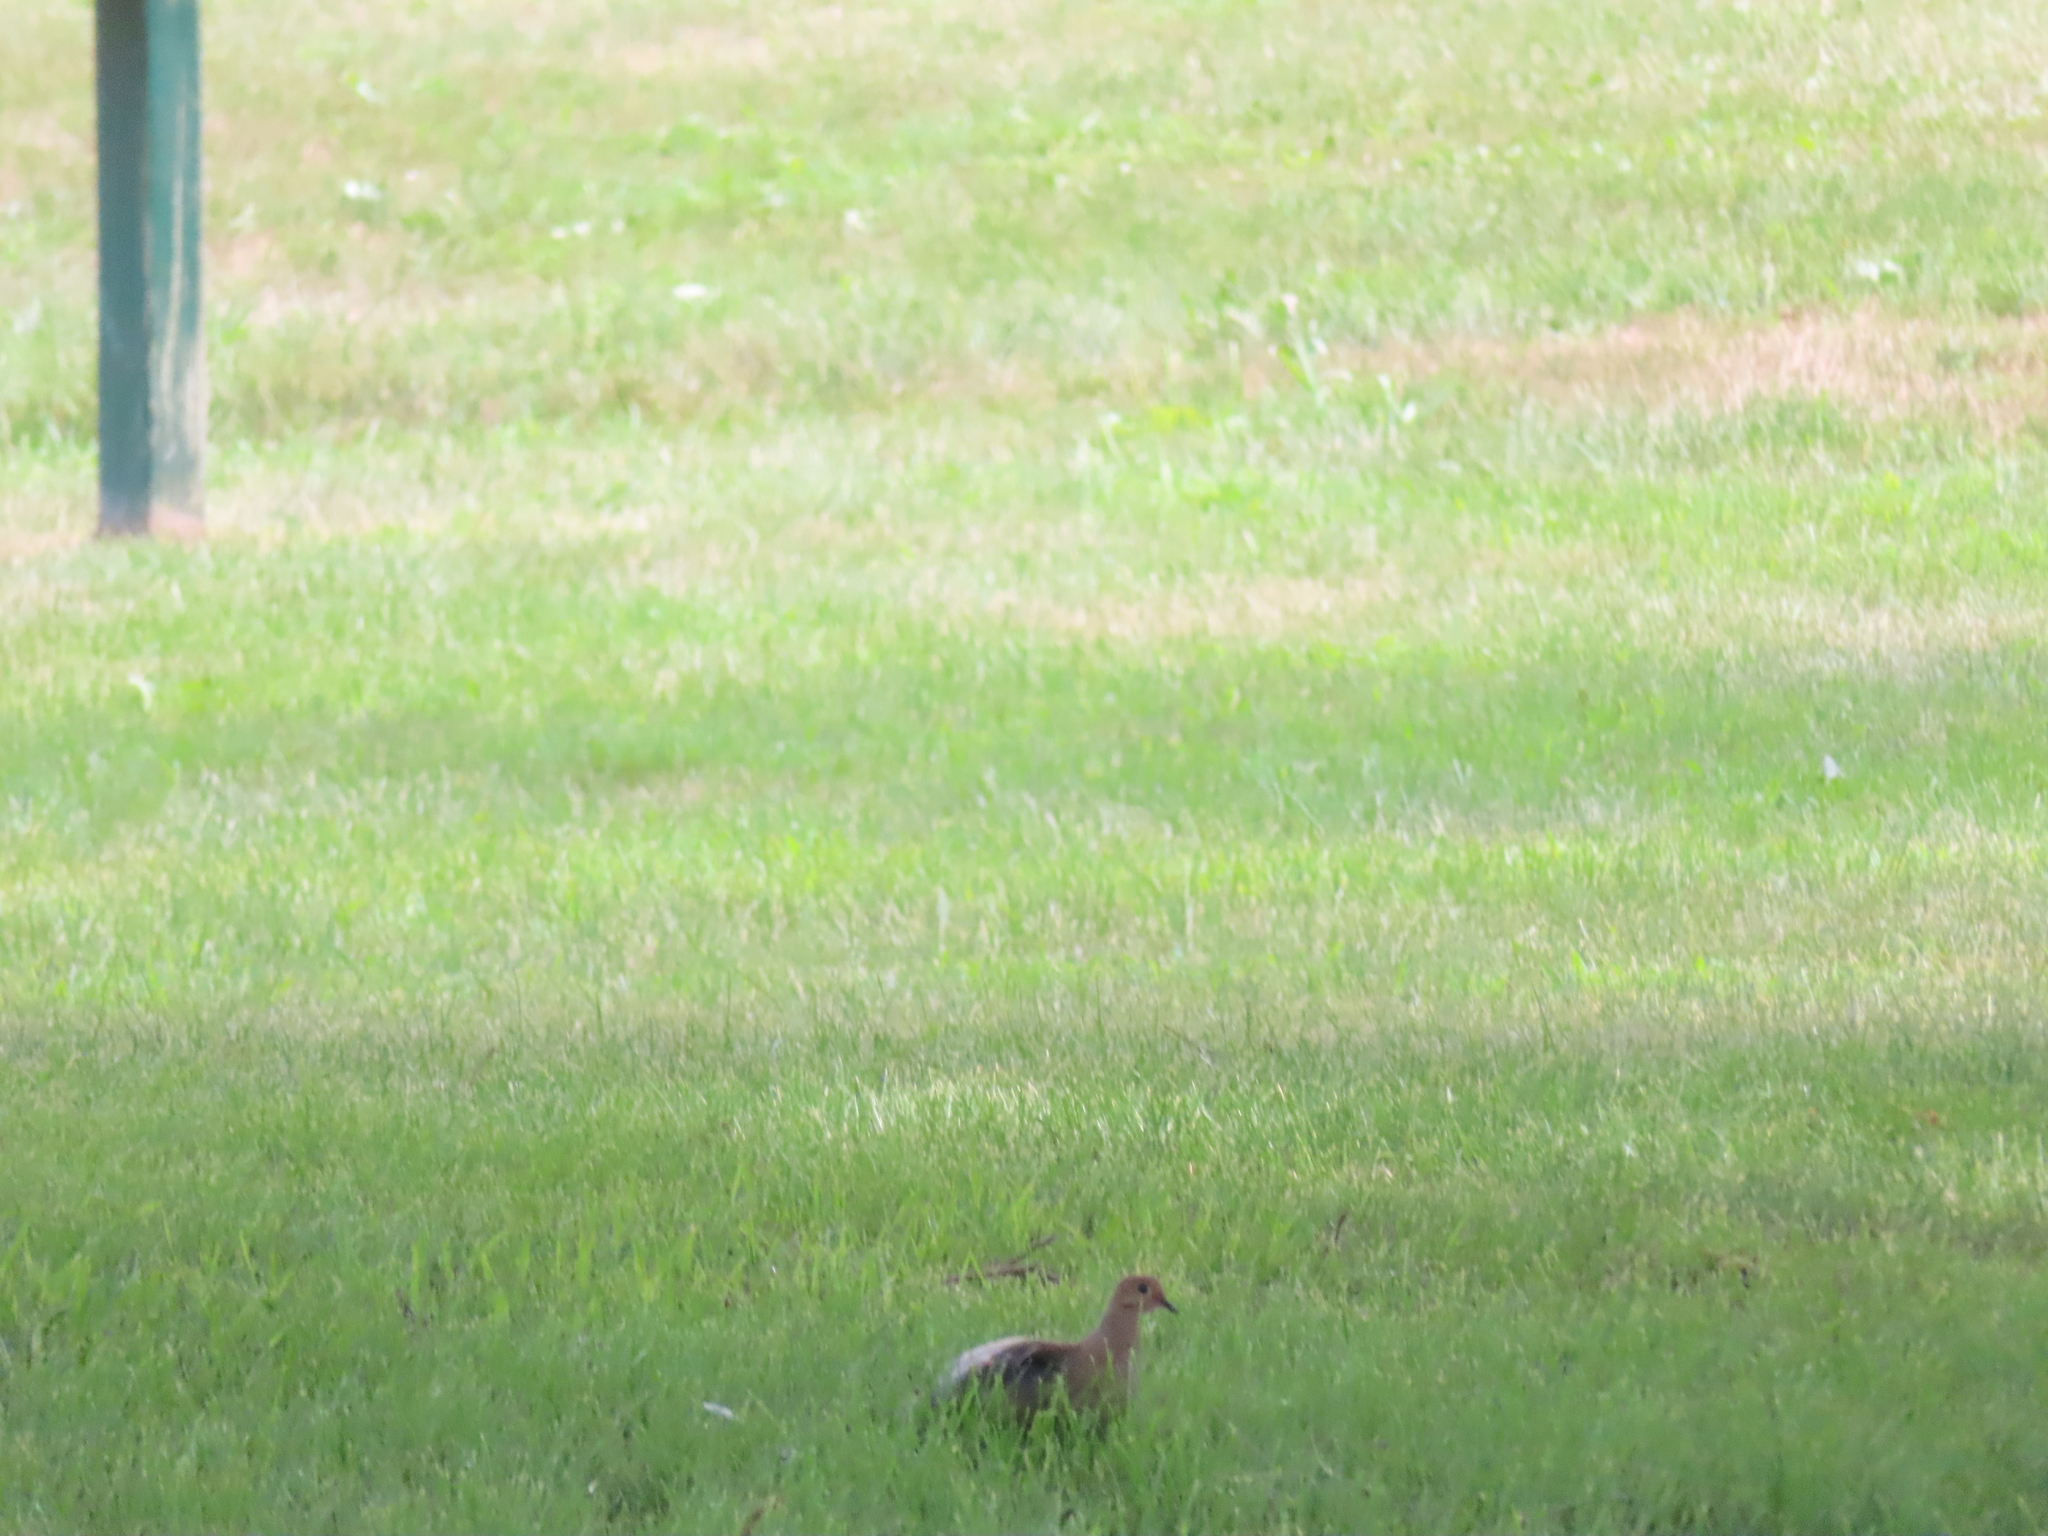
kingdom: Animalia
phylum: Chordata
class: Aves
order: Columbiformes
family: Columbidae
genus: Zenaida
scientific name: Zenaida macroura
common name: Mourning dove
